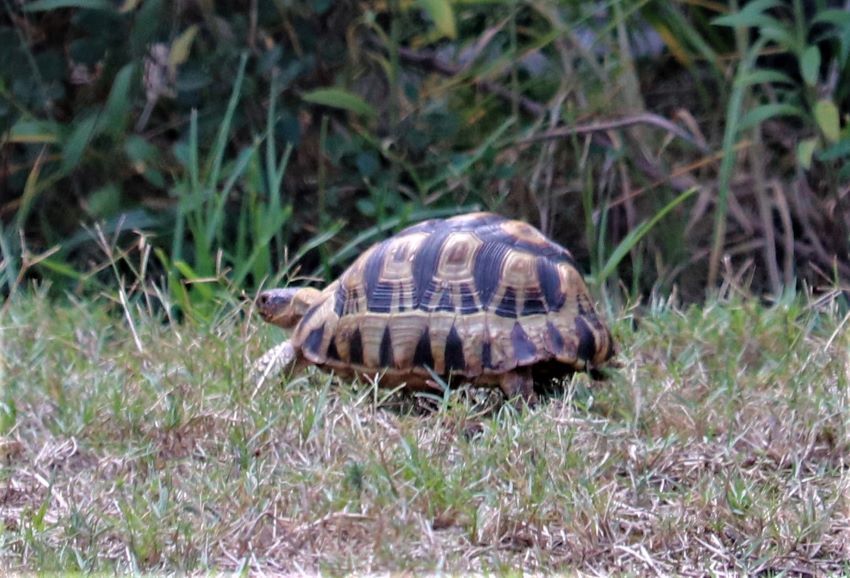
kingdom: Animalia
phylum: Chordata
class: Testudines
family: Testudinidae
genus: Chersina
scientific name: Chersina angulata
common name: South african bowsprit tortoise
